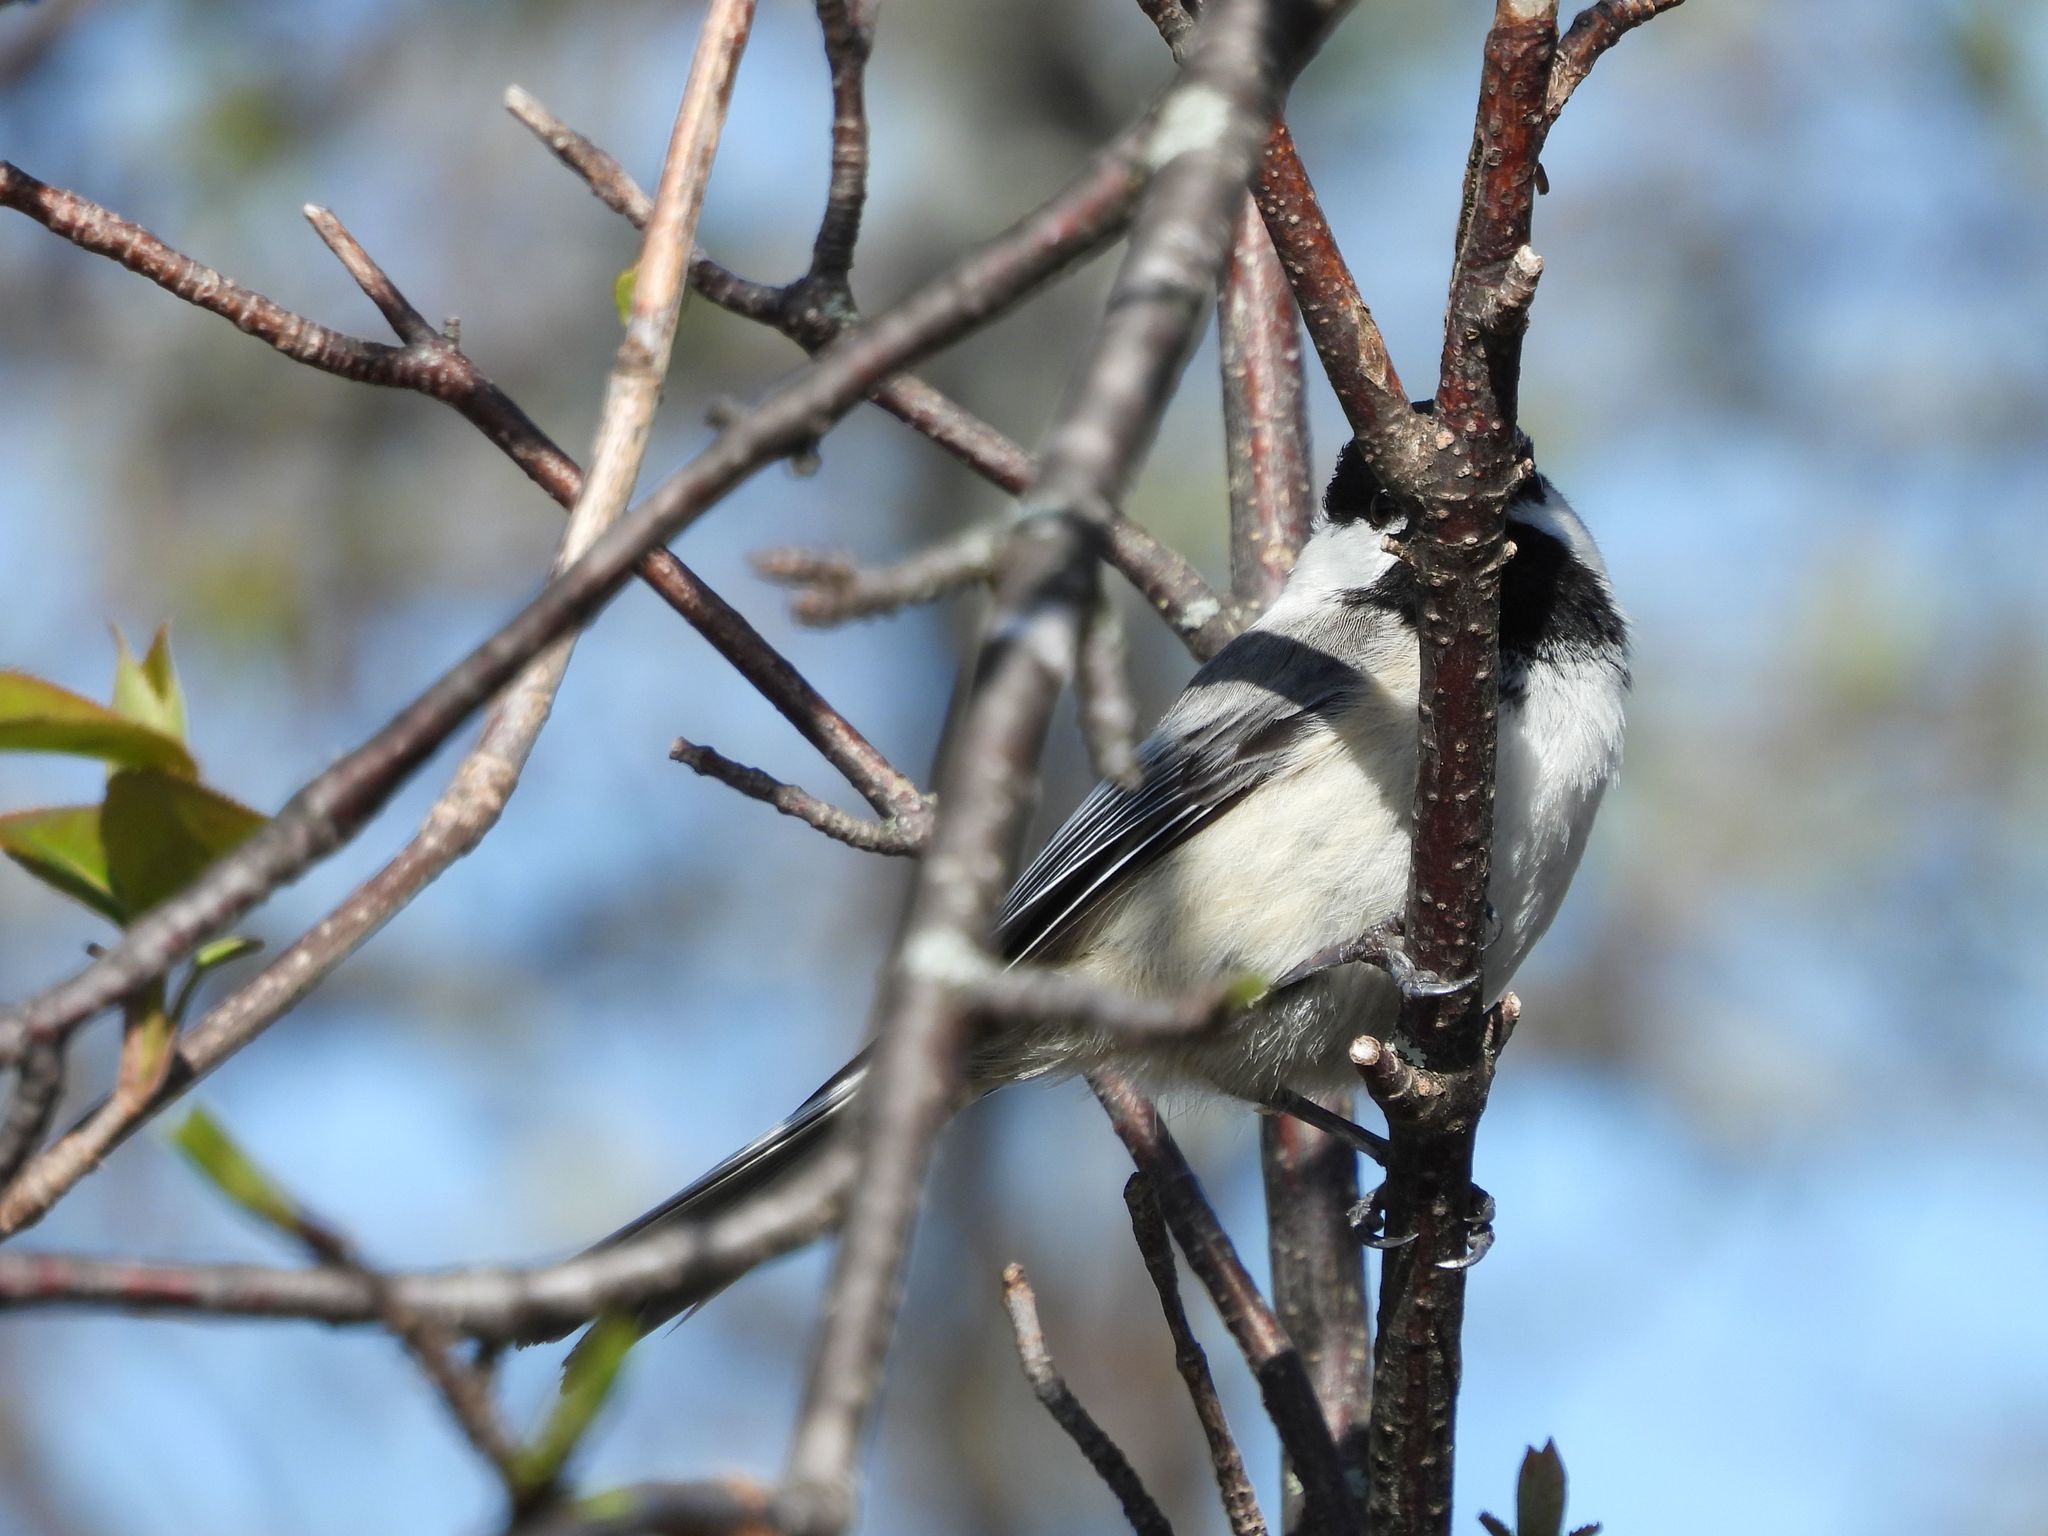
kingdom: Animalia
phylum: Chordata
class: Aves
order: Passeriformes
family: Paridae
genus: Poecile
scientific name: Poecile atricapillus
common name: Black-capped chickadee
